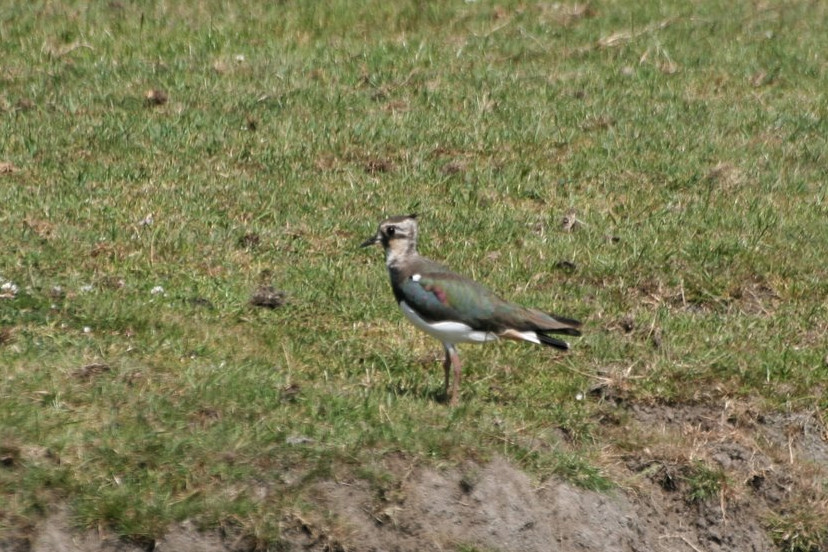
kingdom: Animalia
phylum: Chordata
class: Aves
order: Charadriiformes
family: Charadriidae
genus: Vanellus
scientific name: Vanellus vanellus
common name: Northern lapwing
